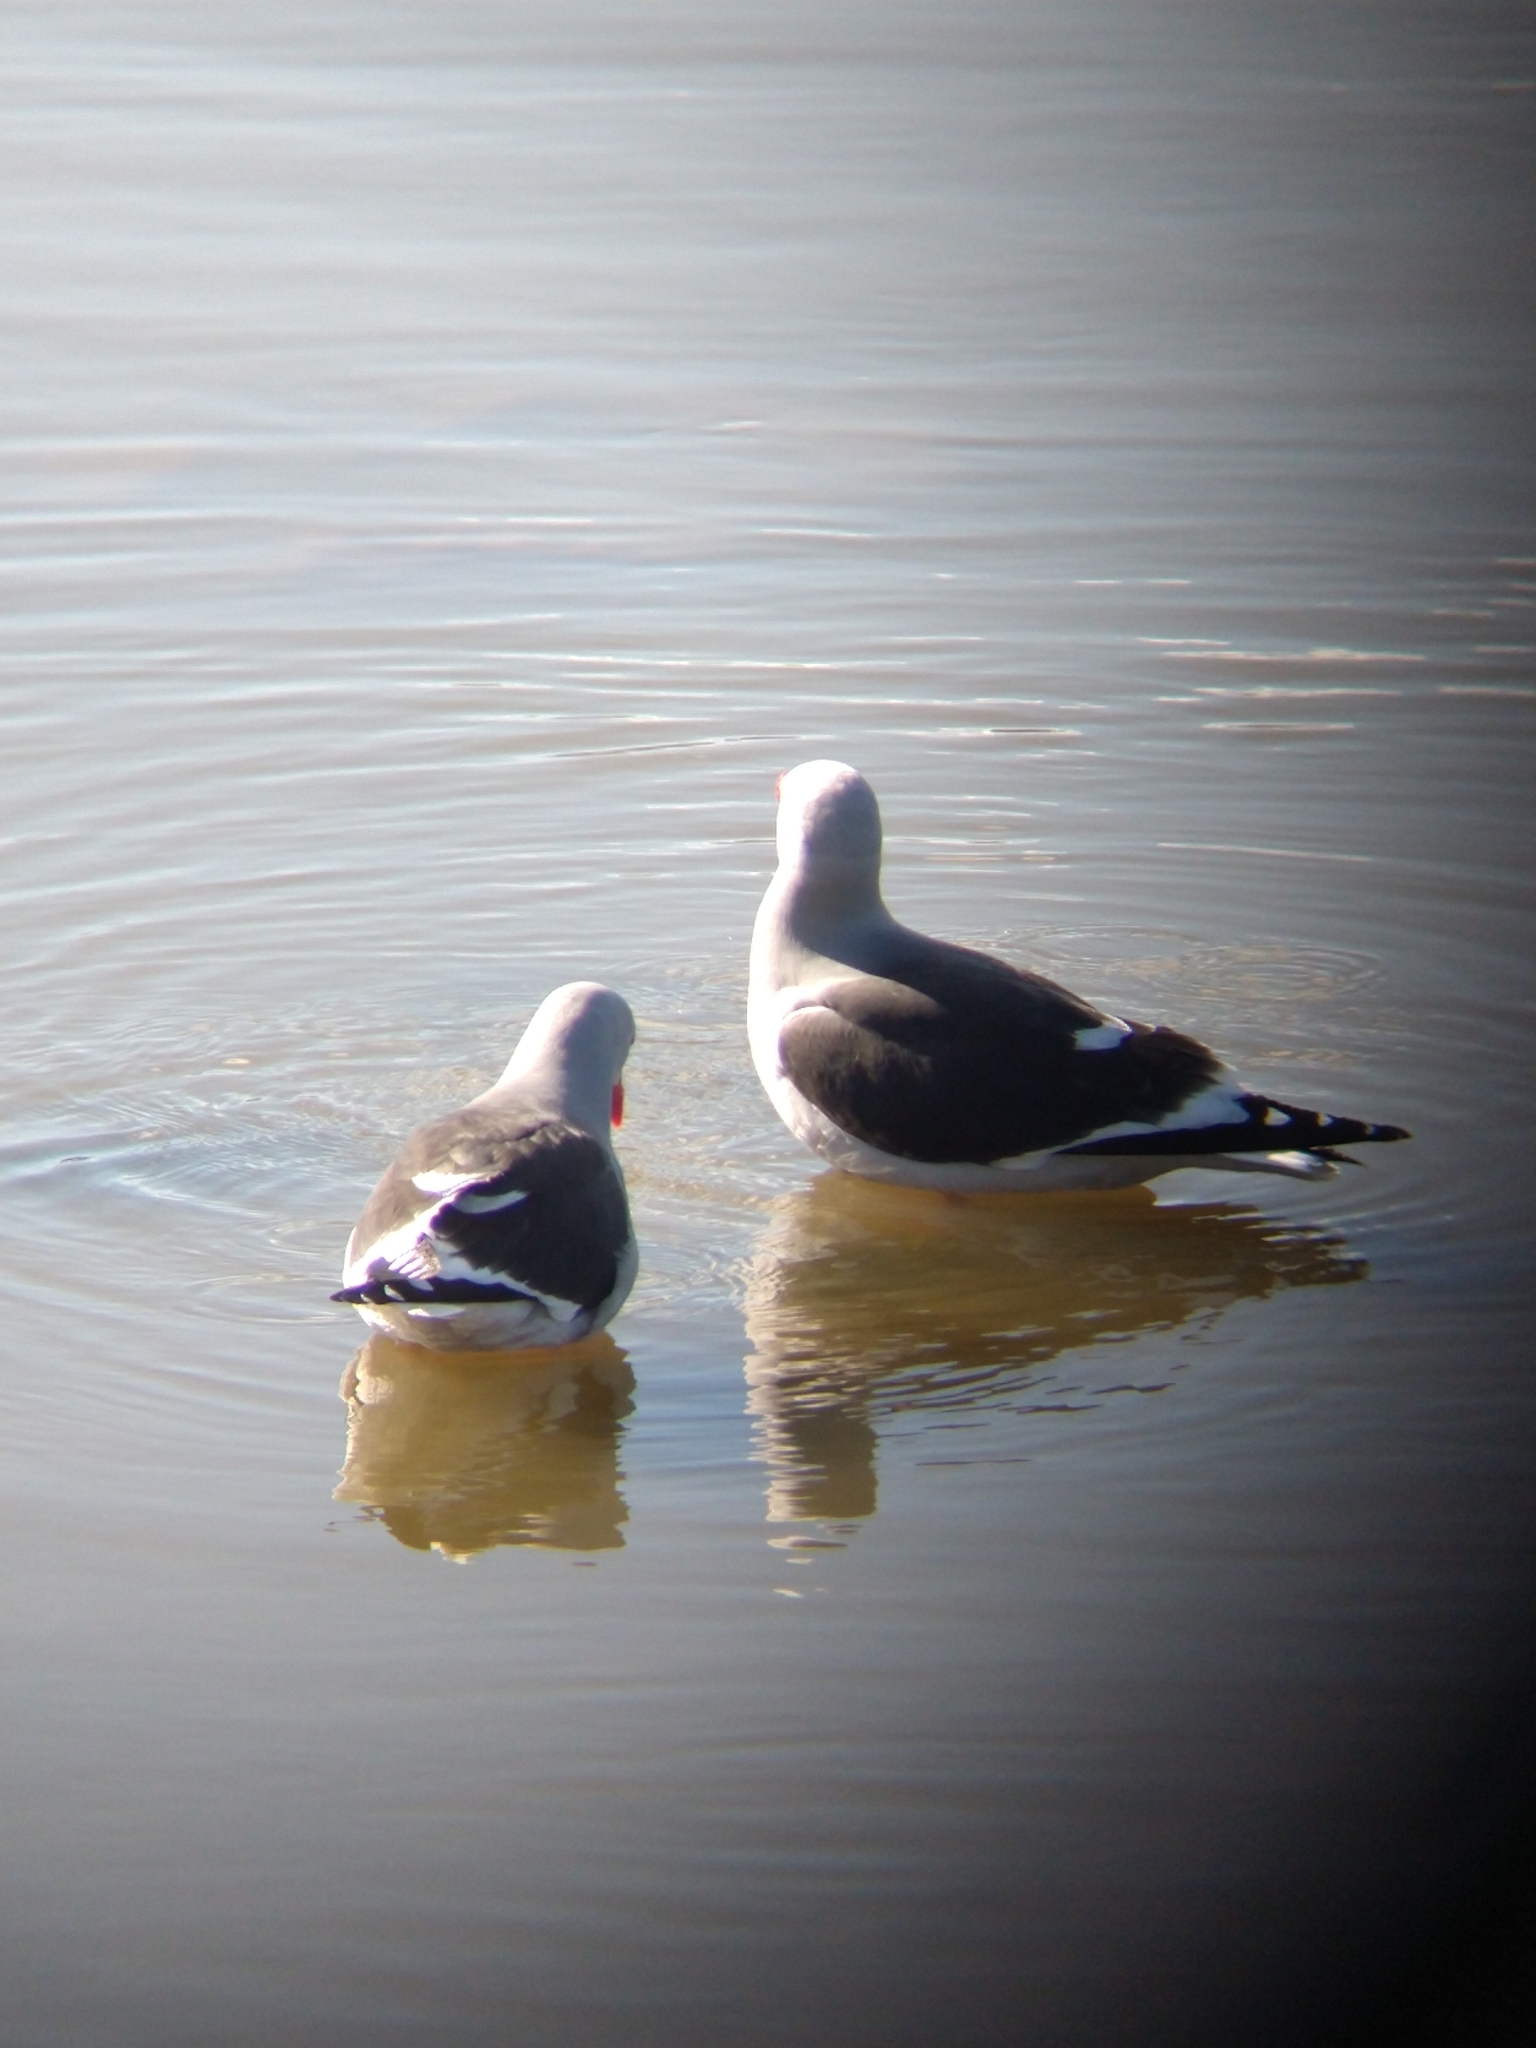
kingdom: Animalia
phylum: Chordata
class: Aves
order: Charadriiformes
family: Laridae
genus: Leucophaeus
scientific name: Leucophaeus scoresbii
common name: Dolphin gull
